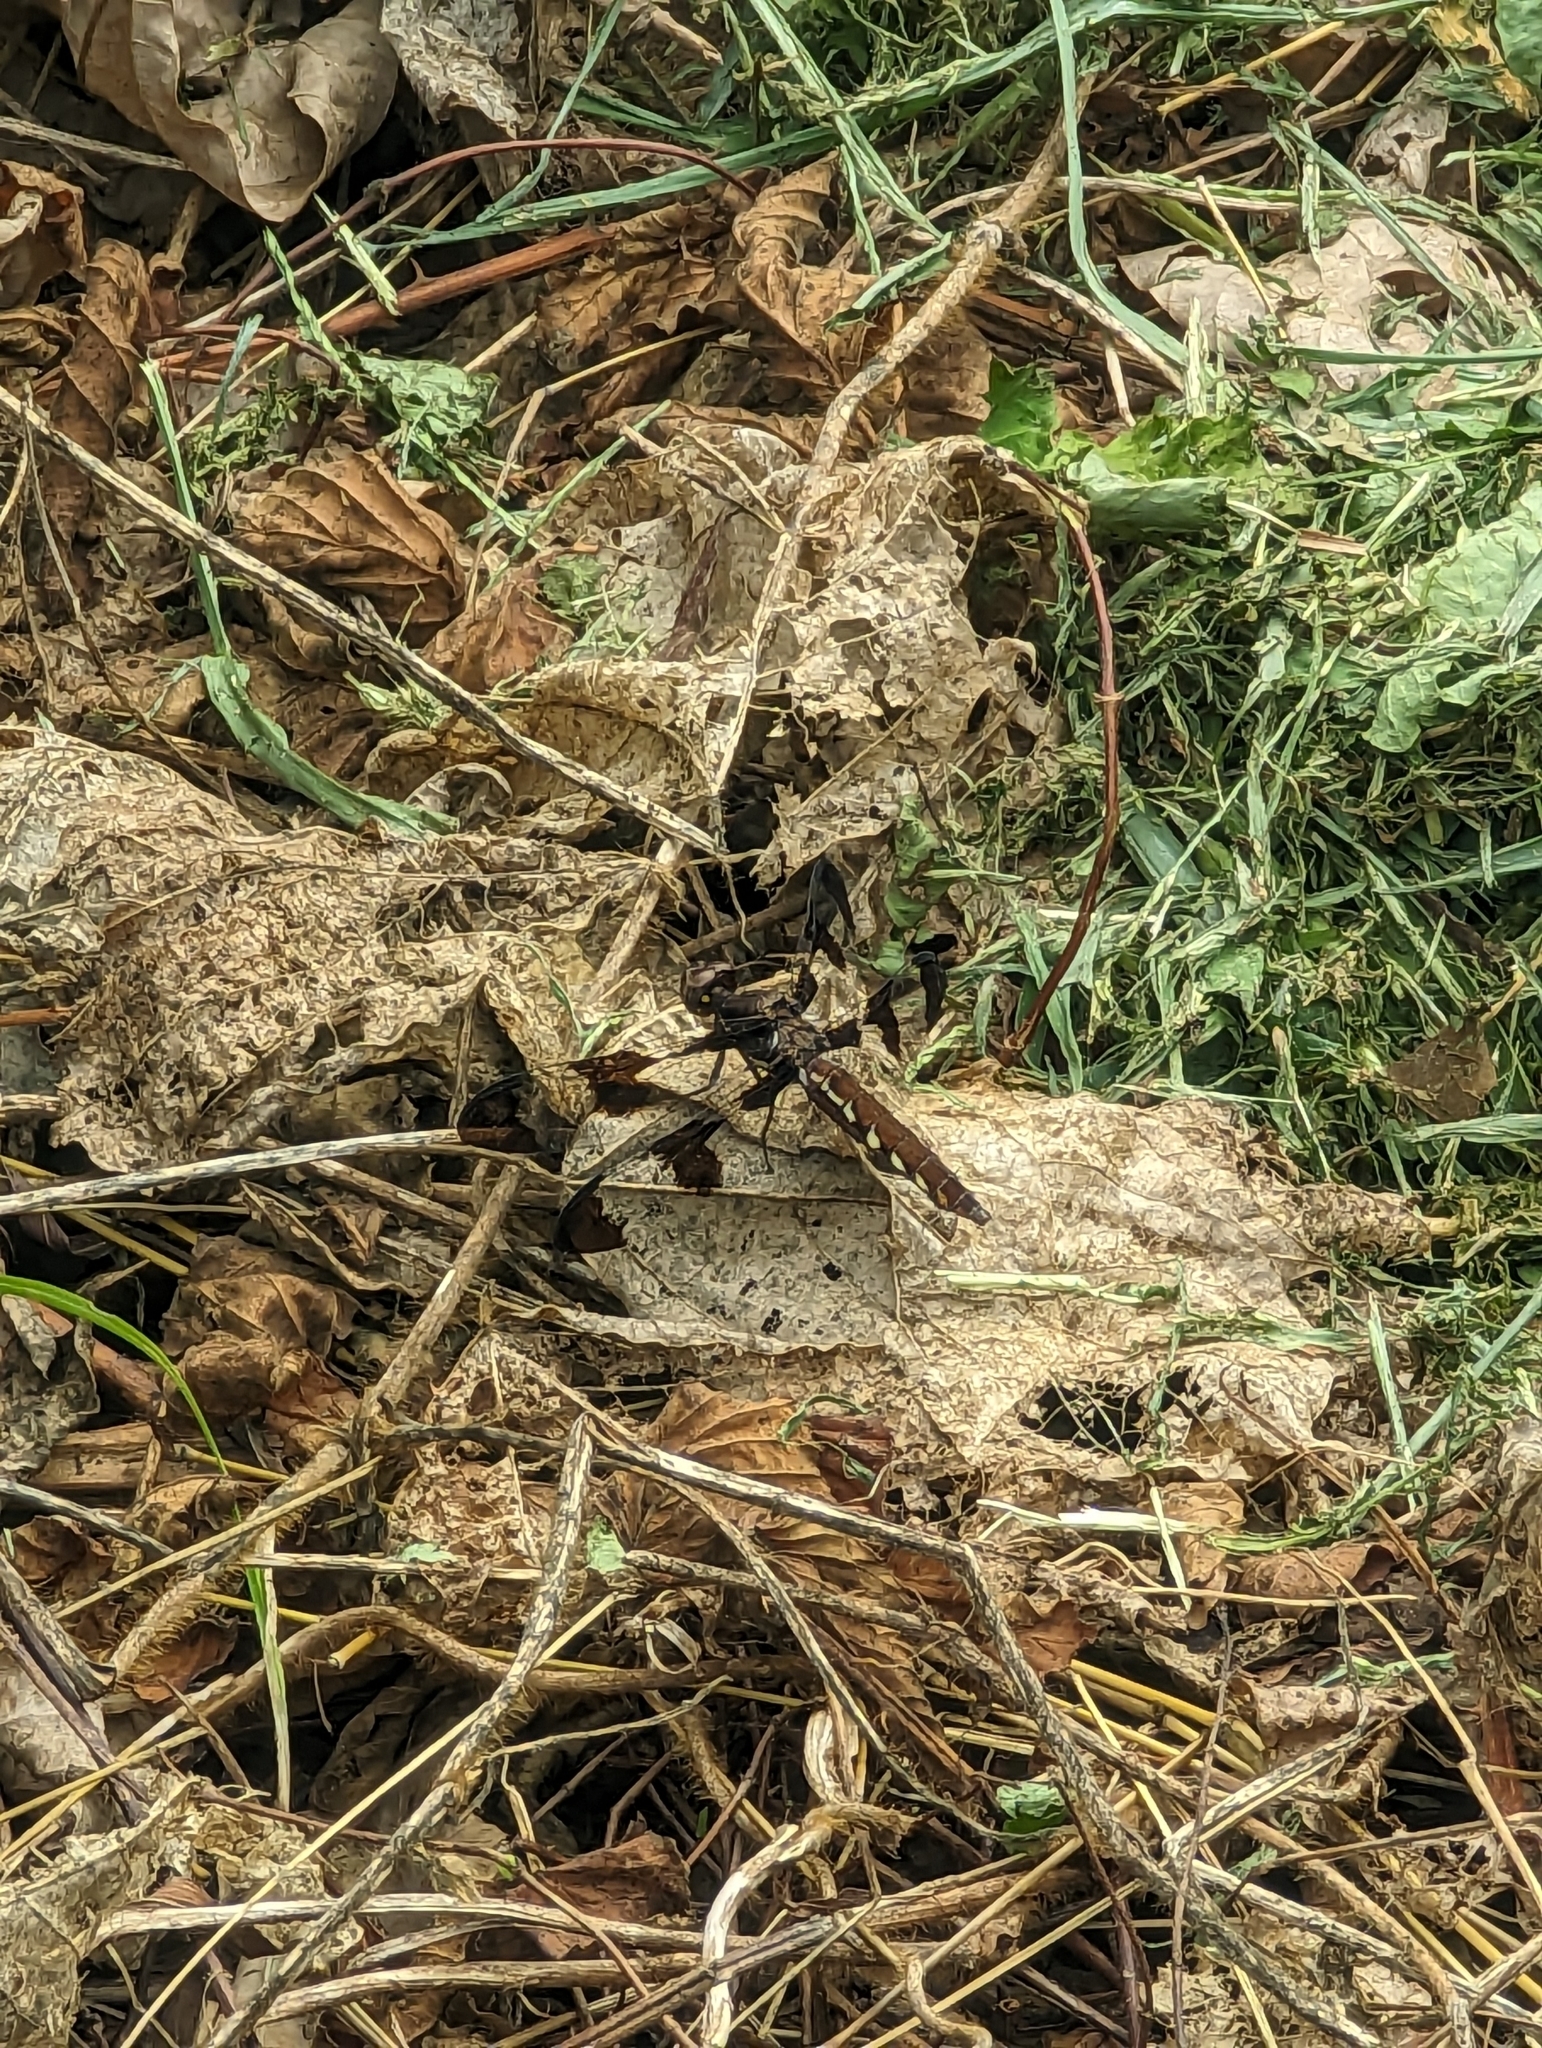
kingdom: Animalia
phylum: Arthropoda
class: Insecta
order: Odonata
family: Libellulidae
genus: Plathemis
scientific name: Plathemis lydia
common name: Common whitetail
